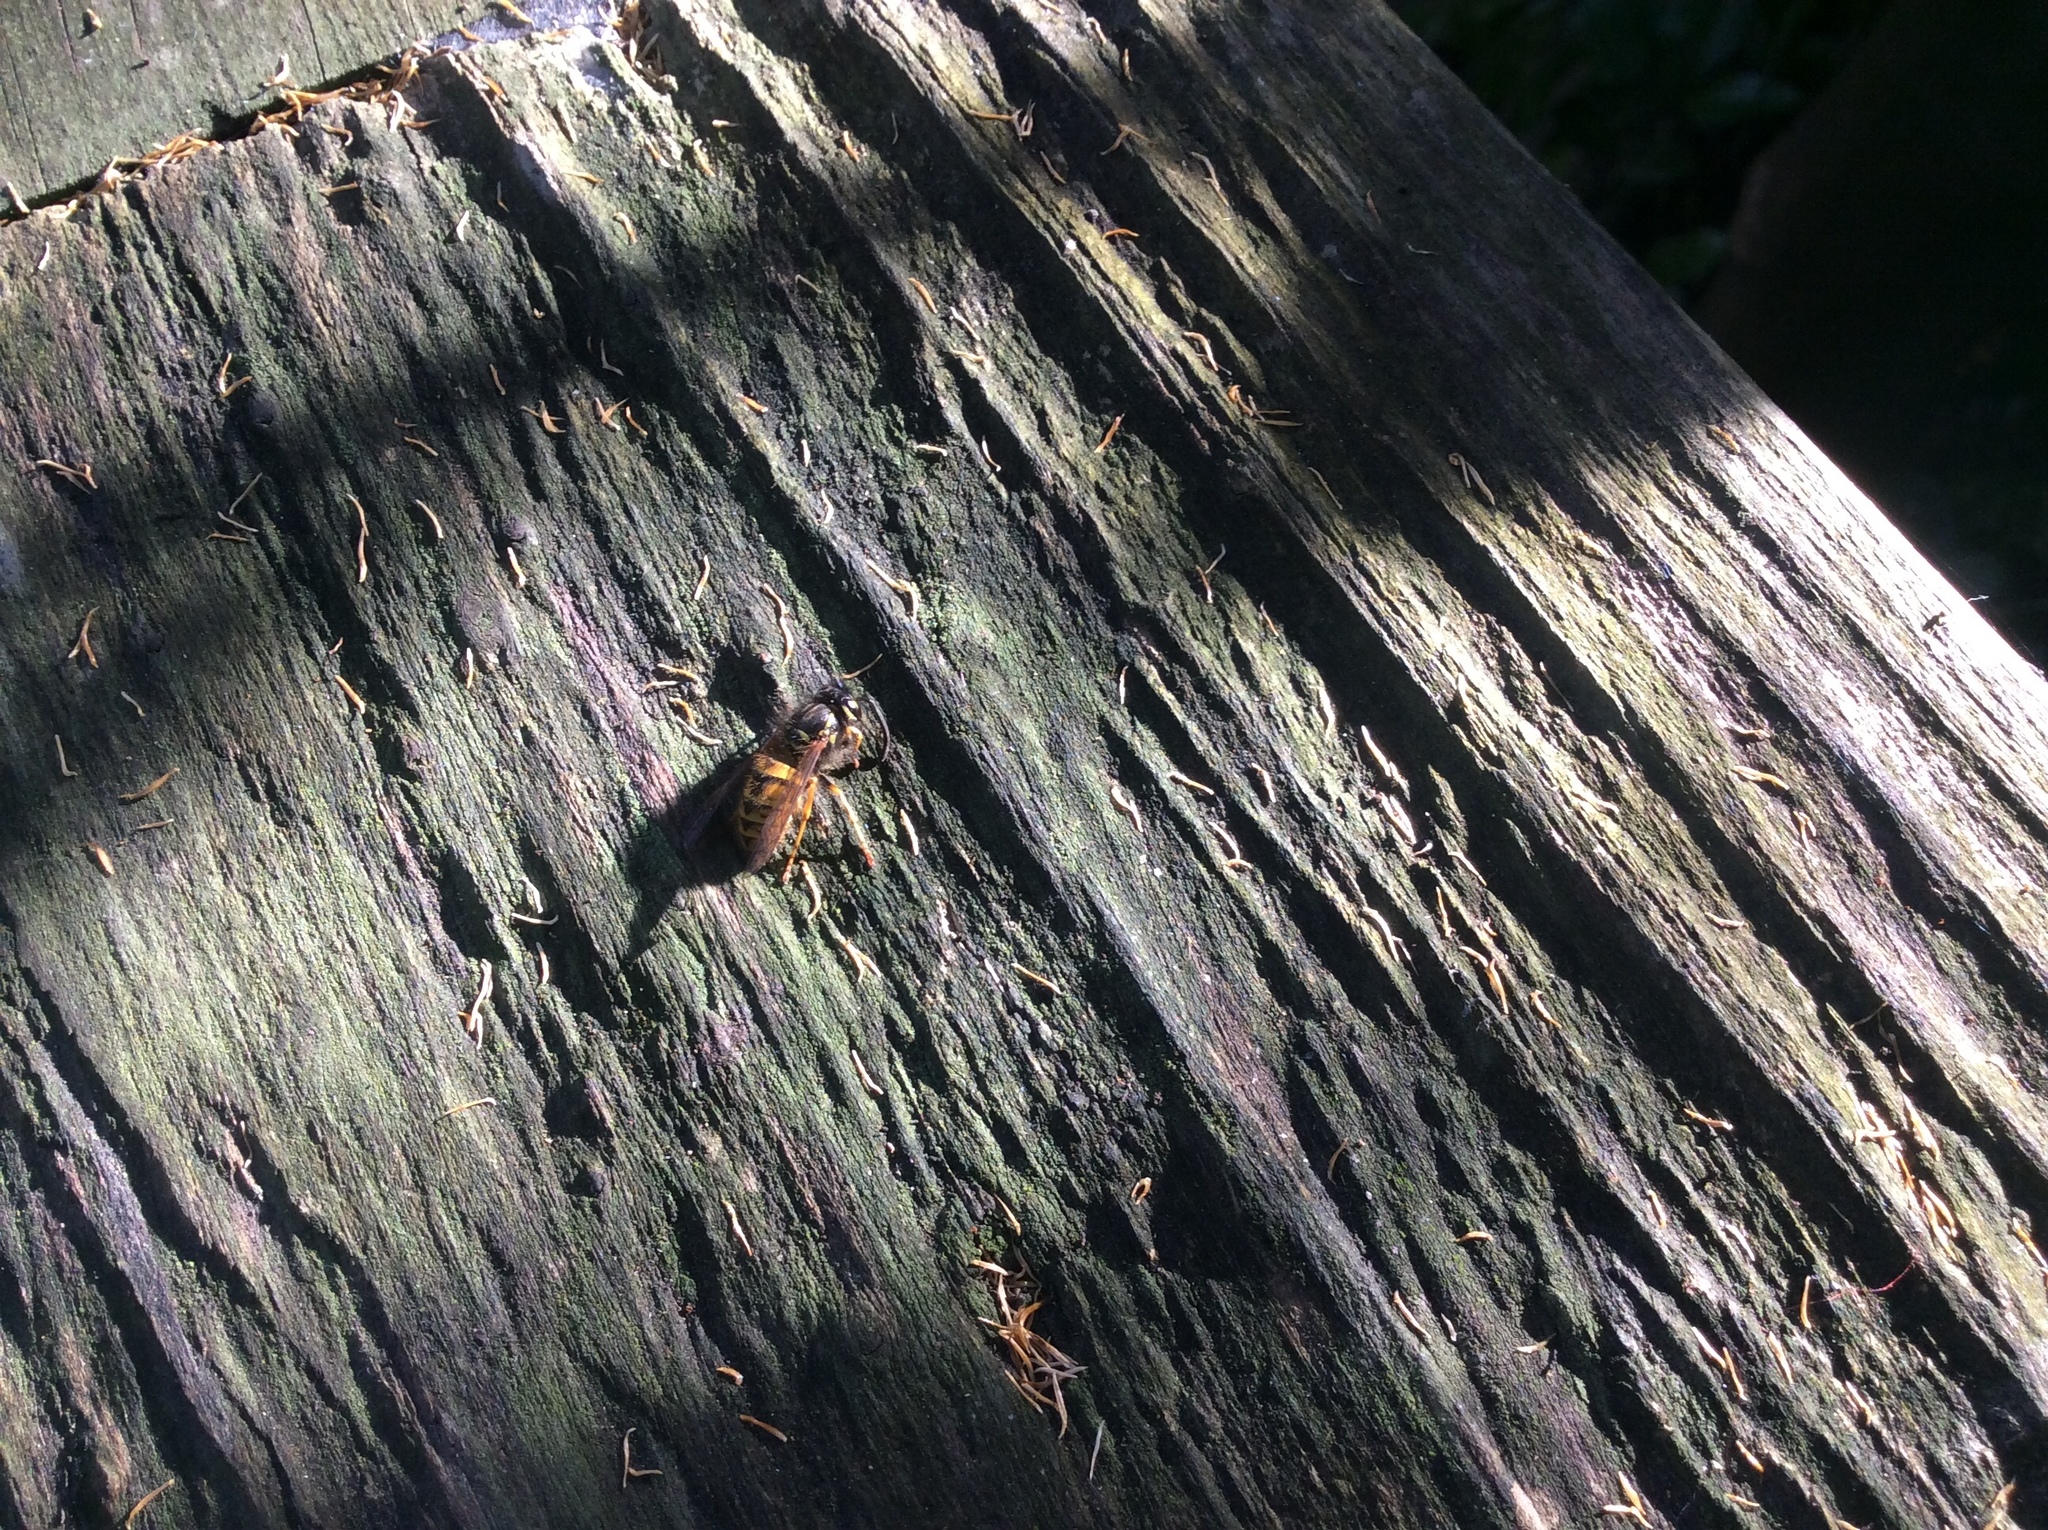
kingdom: Animalia
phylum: Arthropoda
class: Insecta
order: Hymenoptera
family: Vespidae
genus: Vespula
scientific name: Vespula vulgaris
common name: Common wasp
